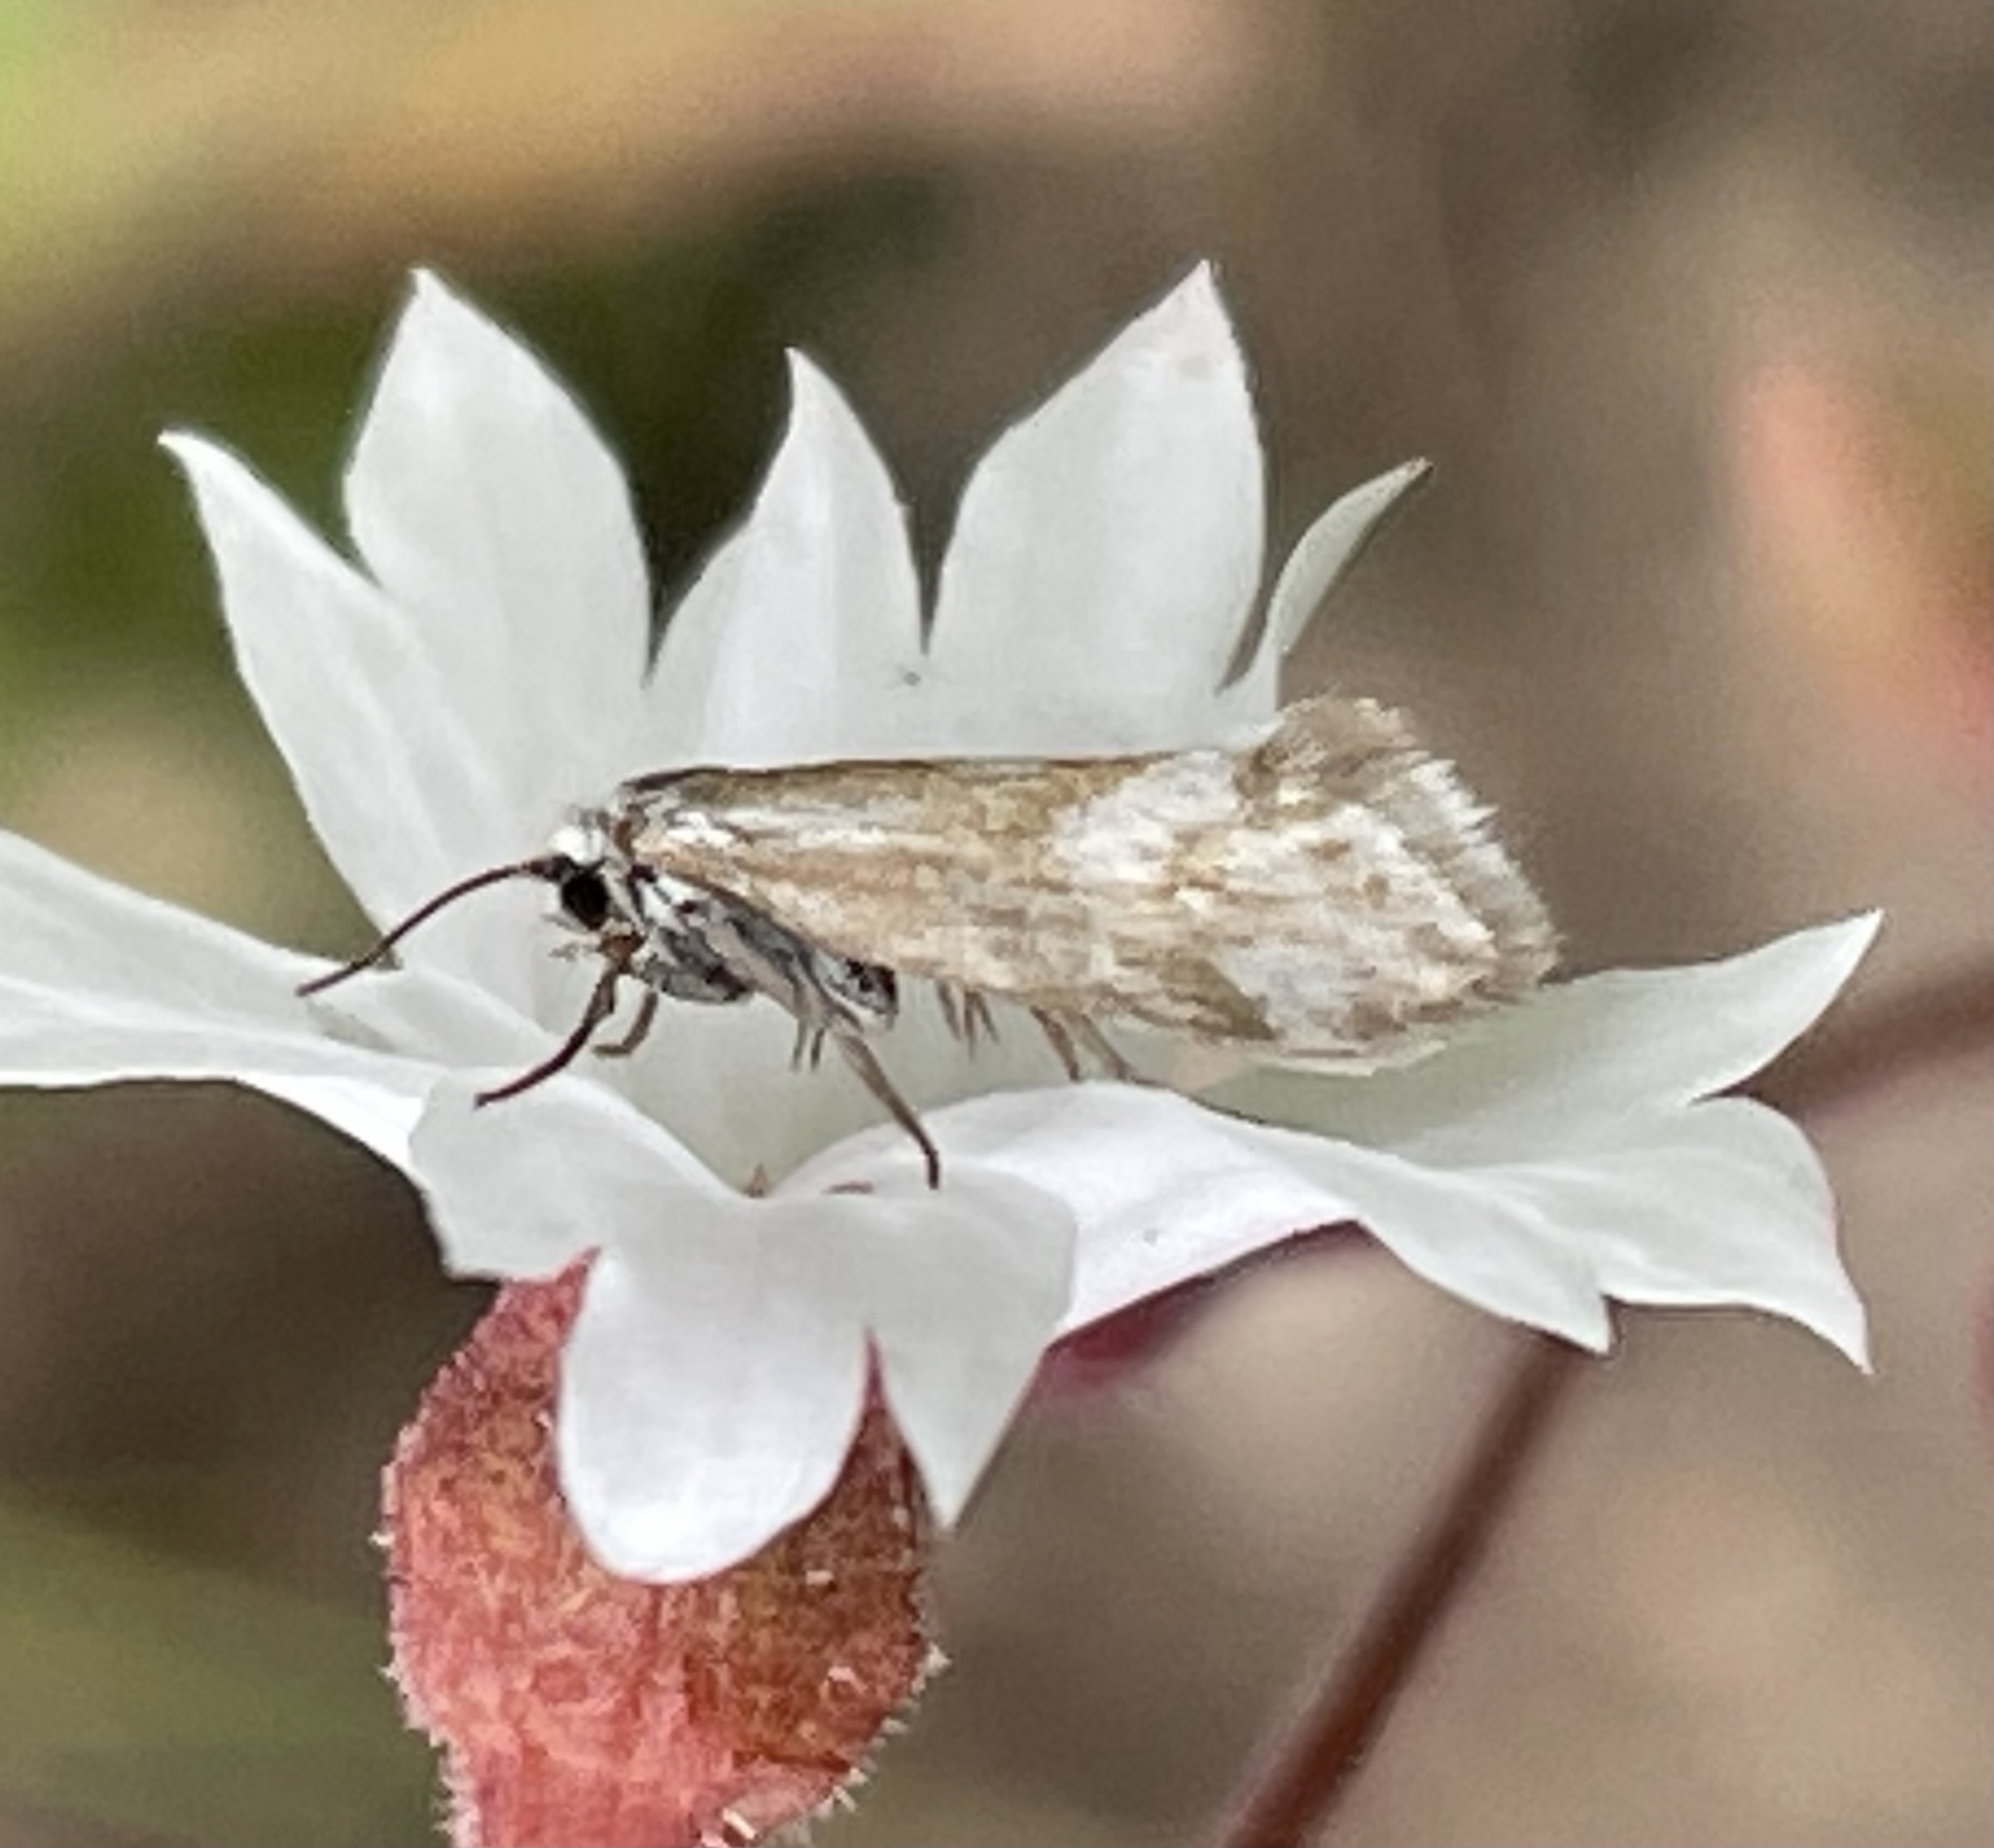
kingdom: Animalia
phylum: Arthropoda
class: Insecta
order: Lepidoptera
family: Prodoxidae
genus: Greya
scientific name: Greya obscura
